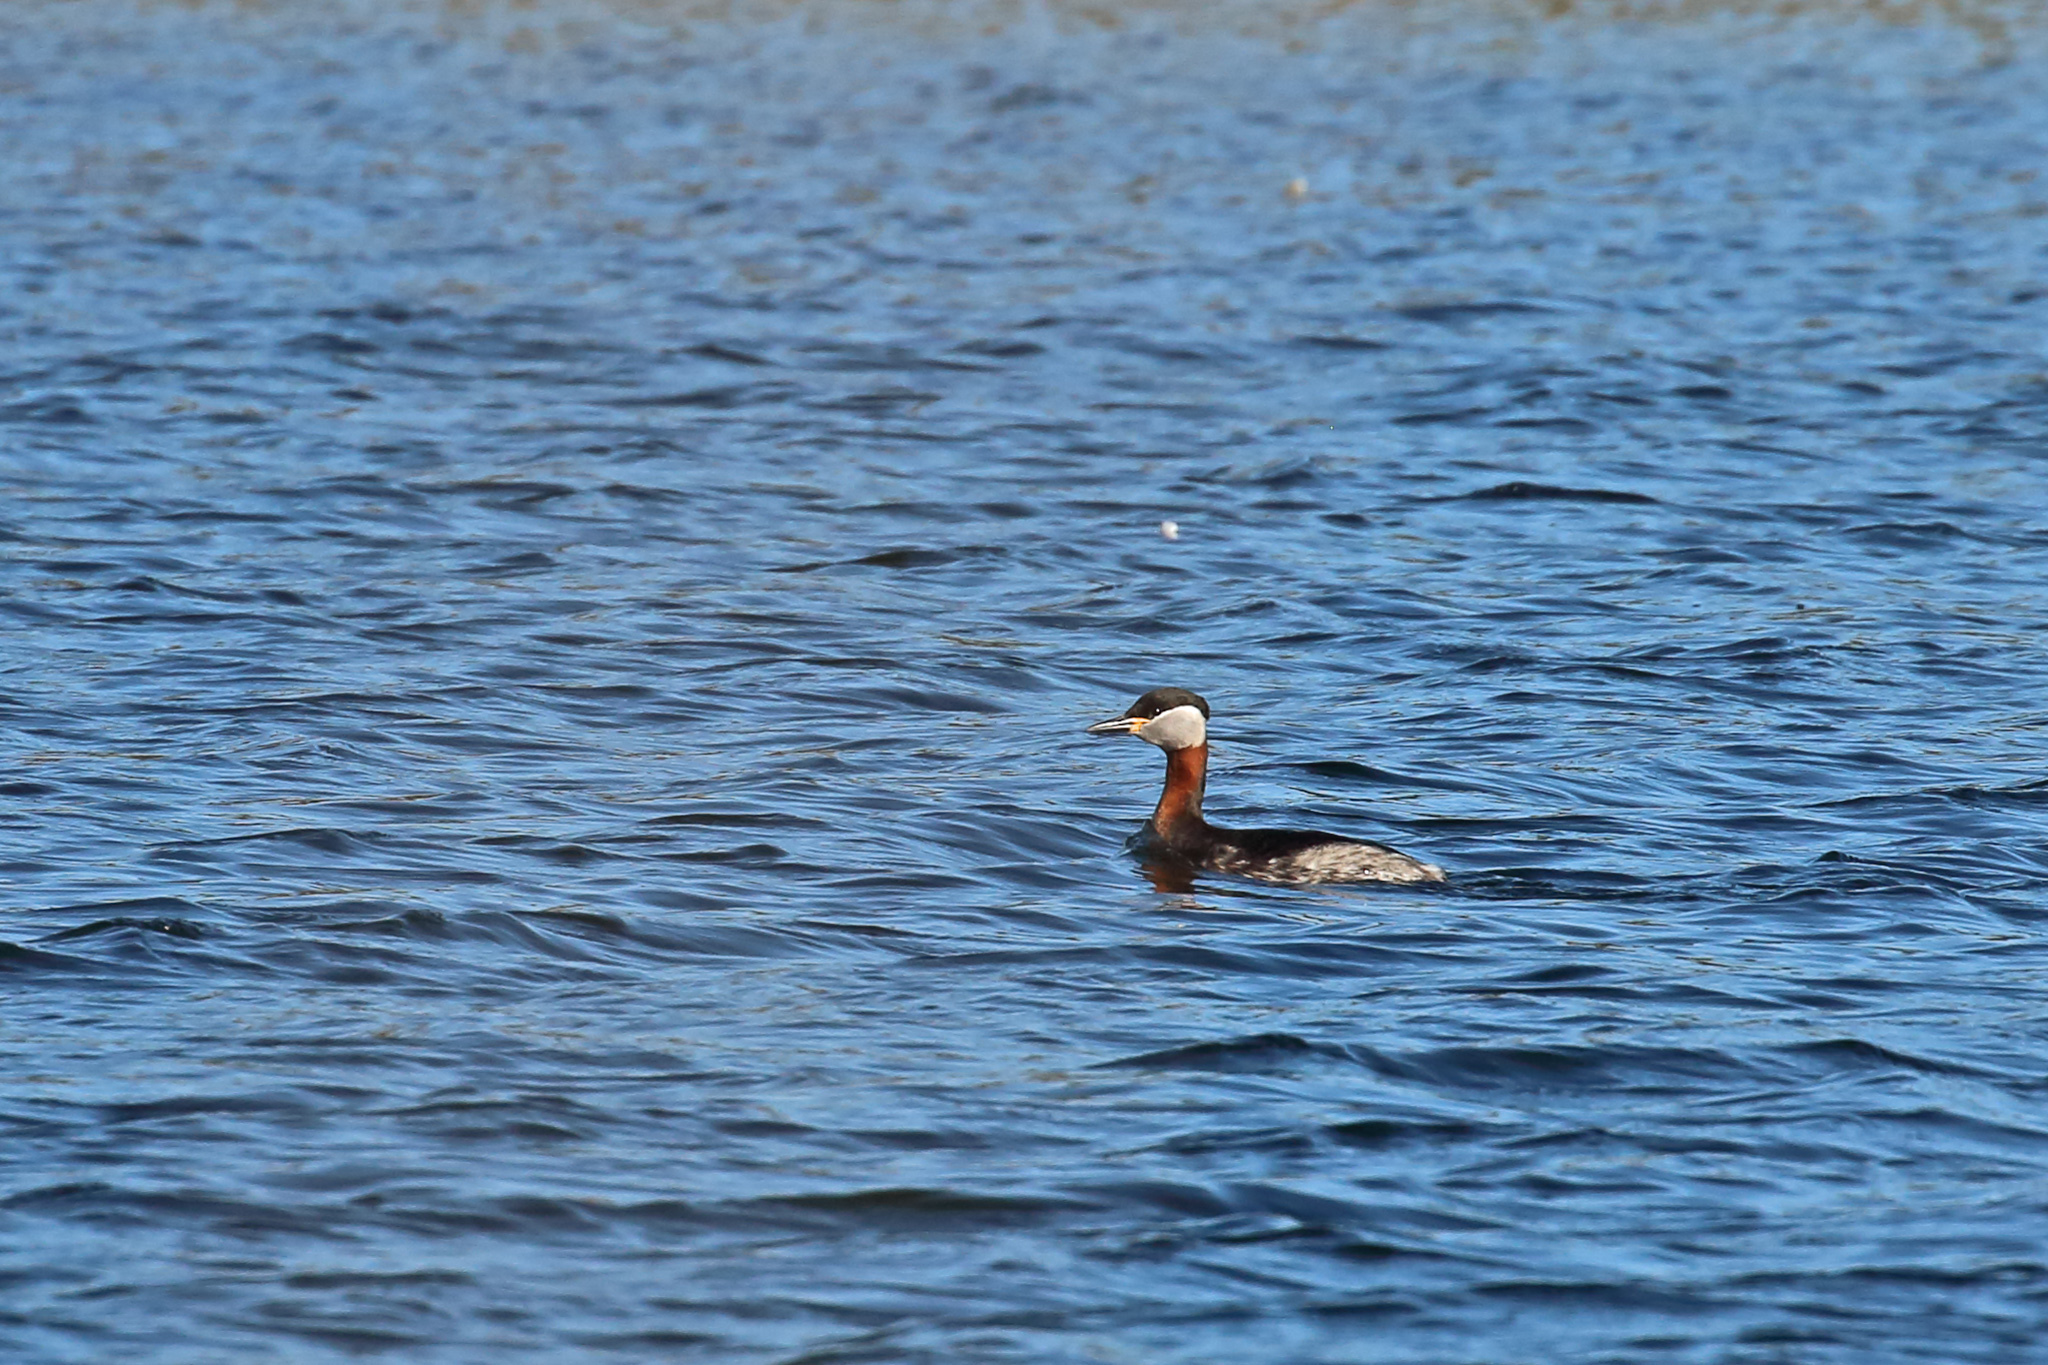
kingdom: Animalia
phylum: Chordata
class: Aves
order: Podicipediformes
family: Podicipedidae
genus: Podiceps
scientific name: Podiceps grisegena
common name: Red-necked grebe
